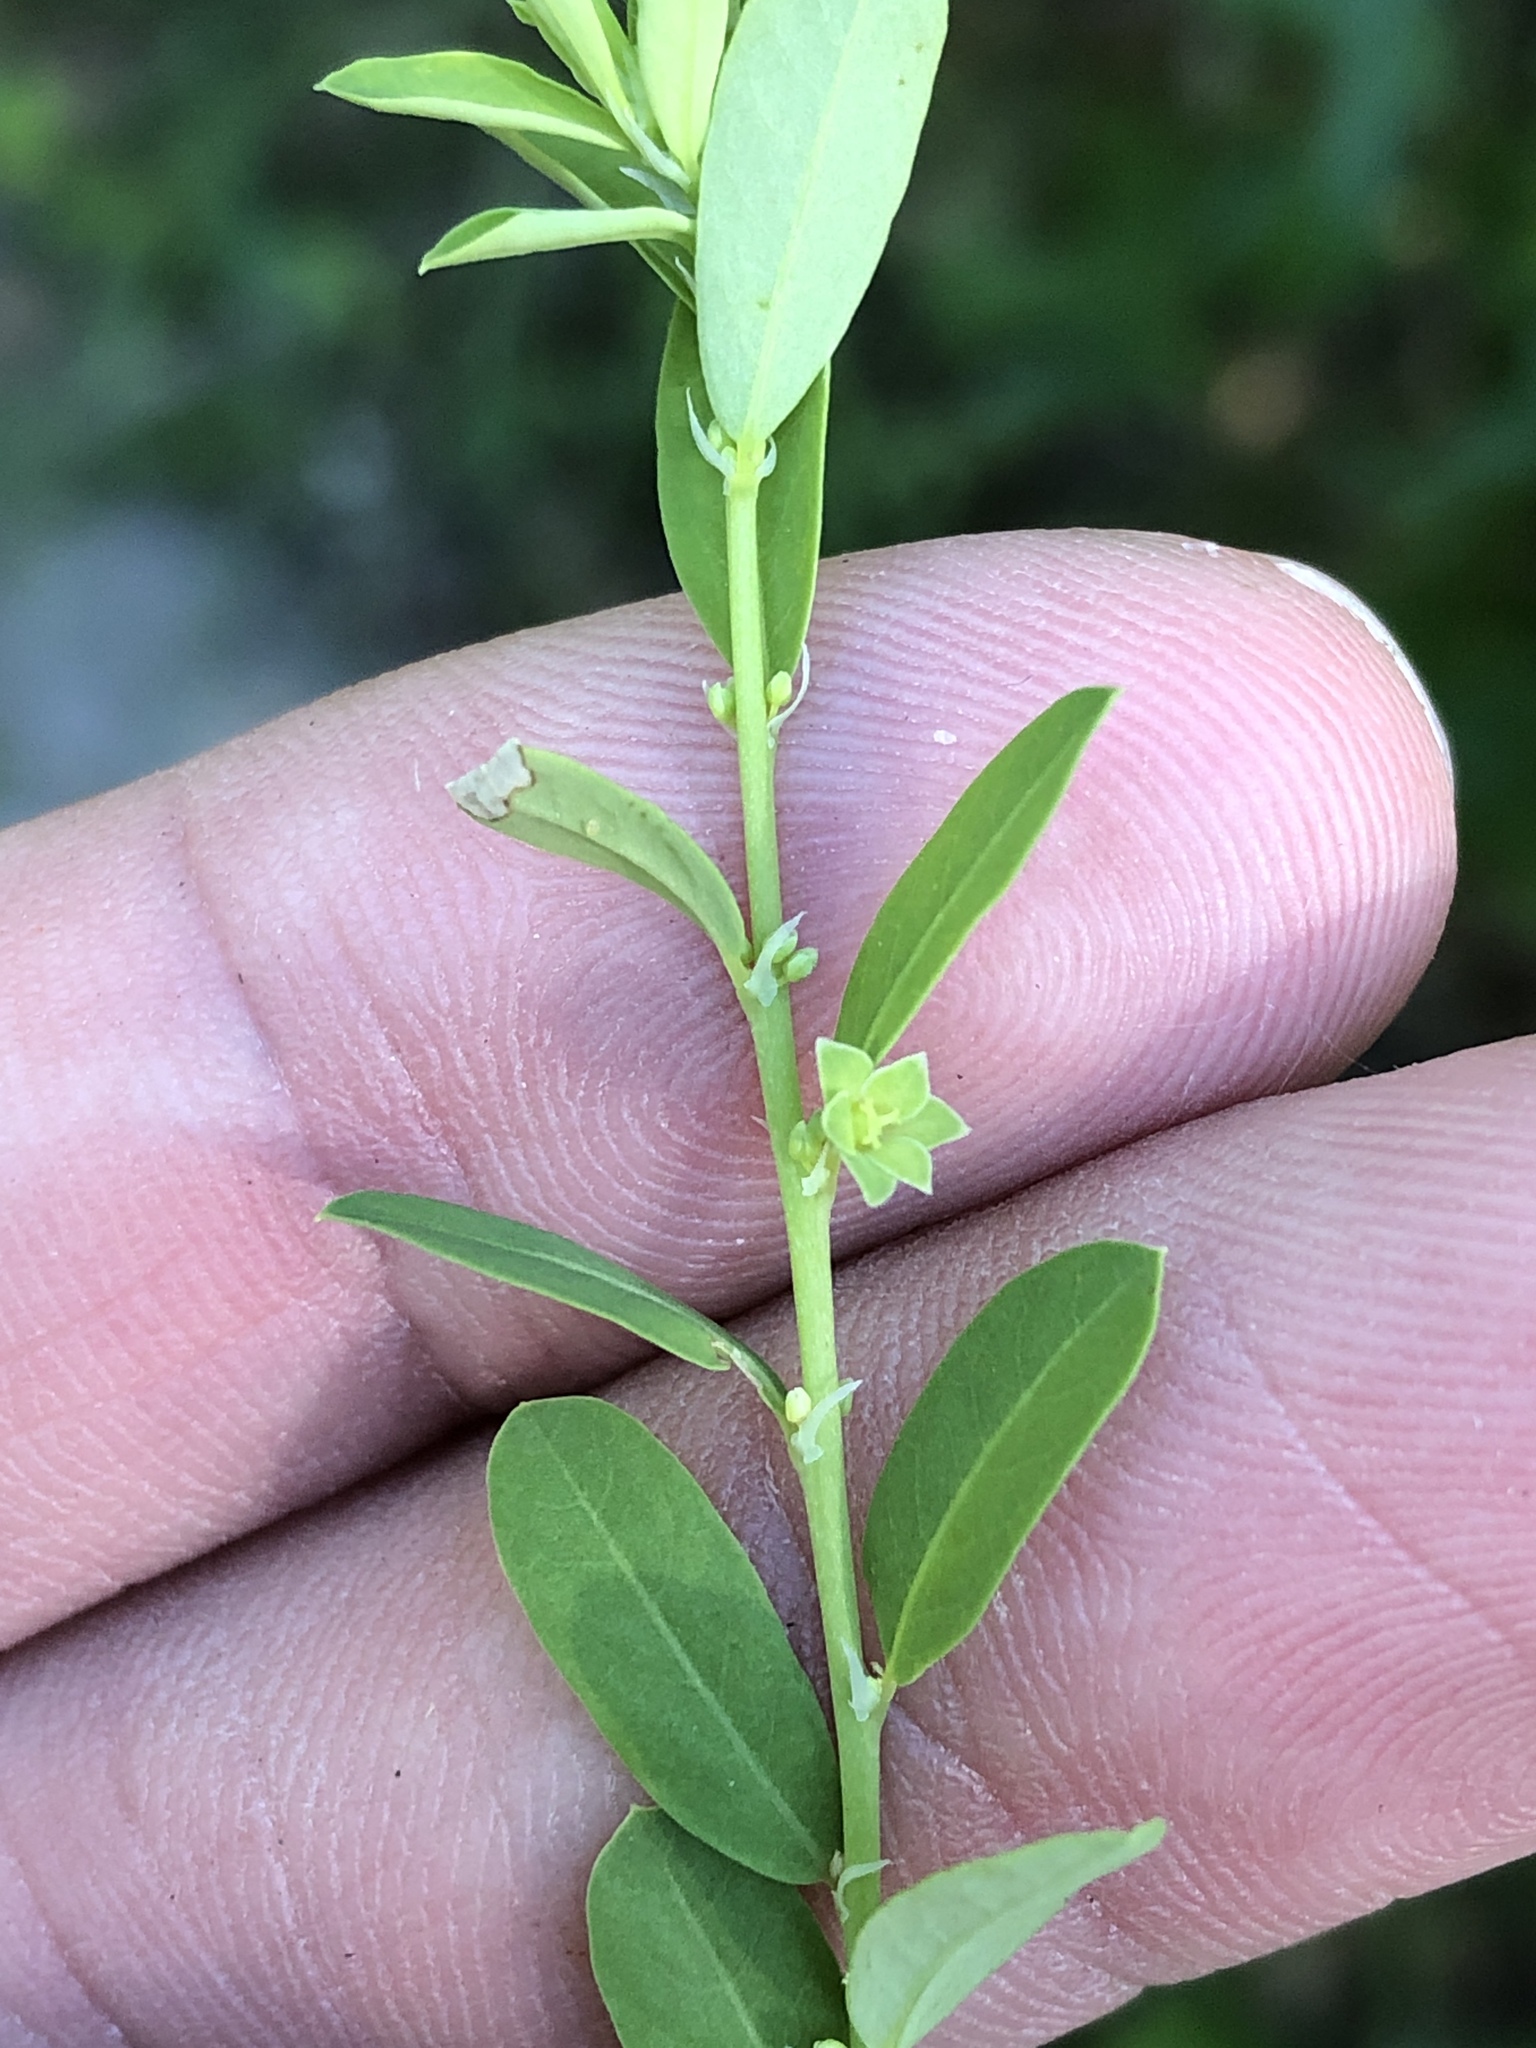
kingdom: Plantae
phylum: Tracheophyta
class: Magnoliopsida
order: Malpighiales
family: Phyllanthaceae
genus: Phyllanthus
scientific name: Phyllanthus polygonoides
